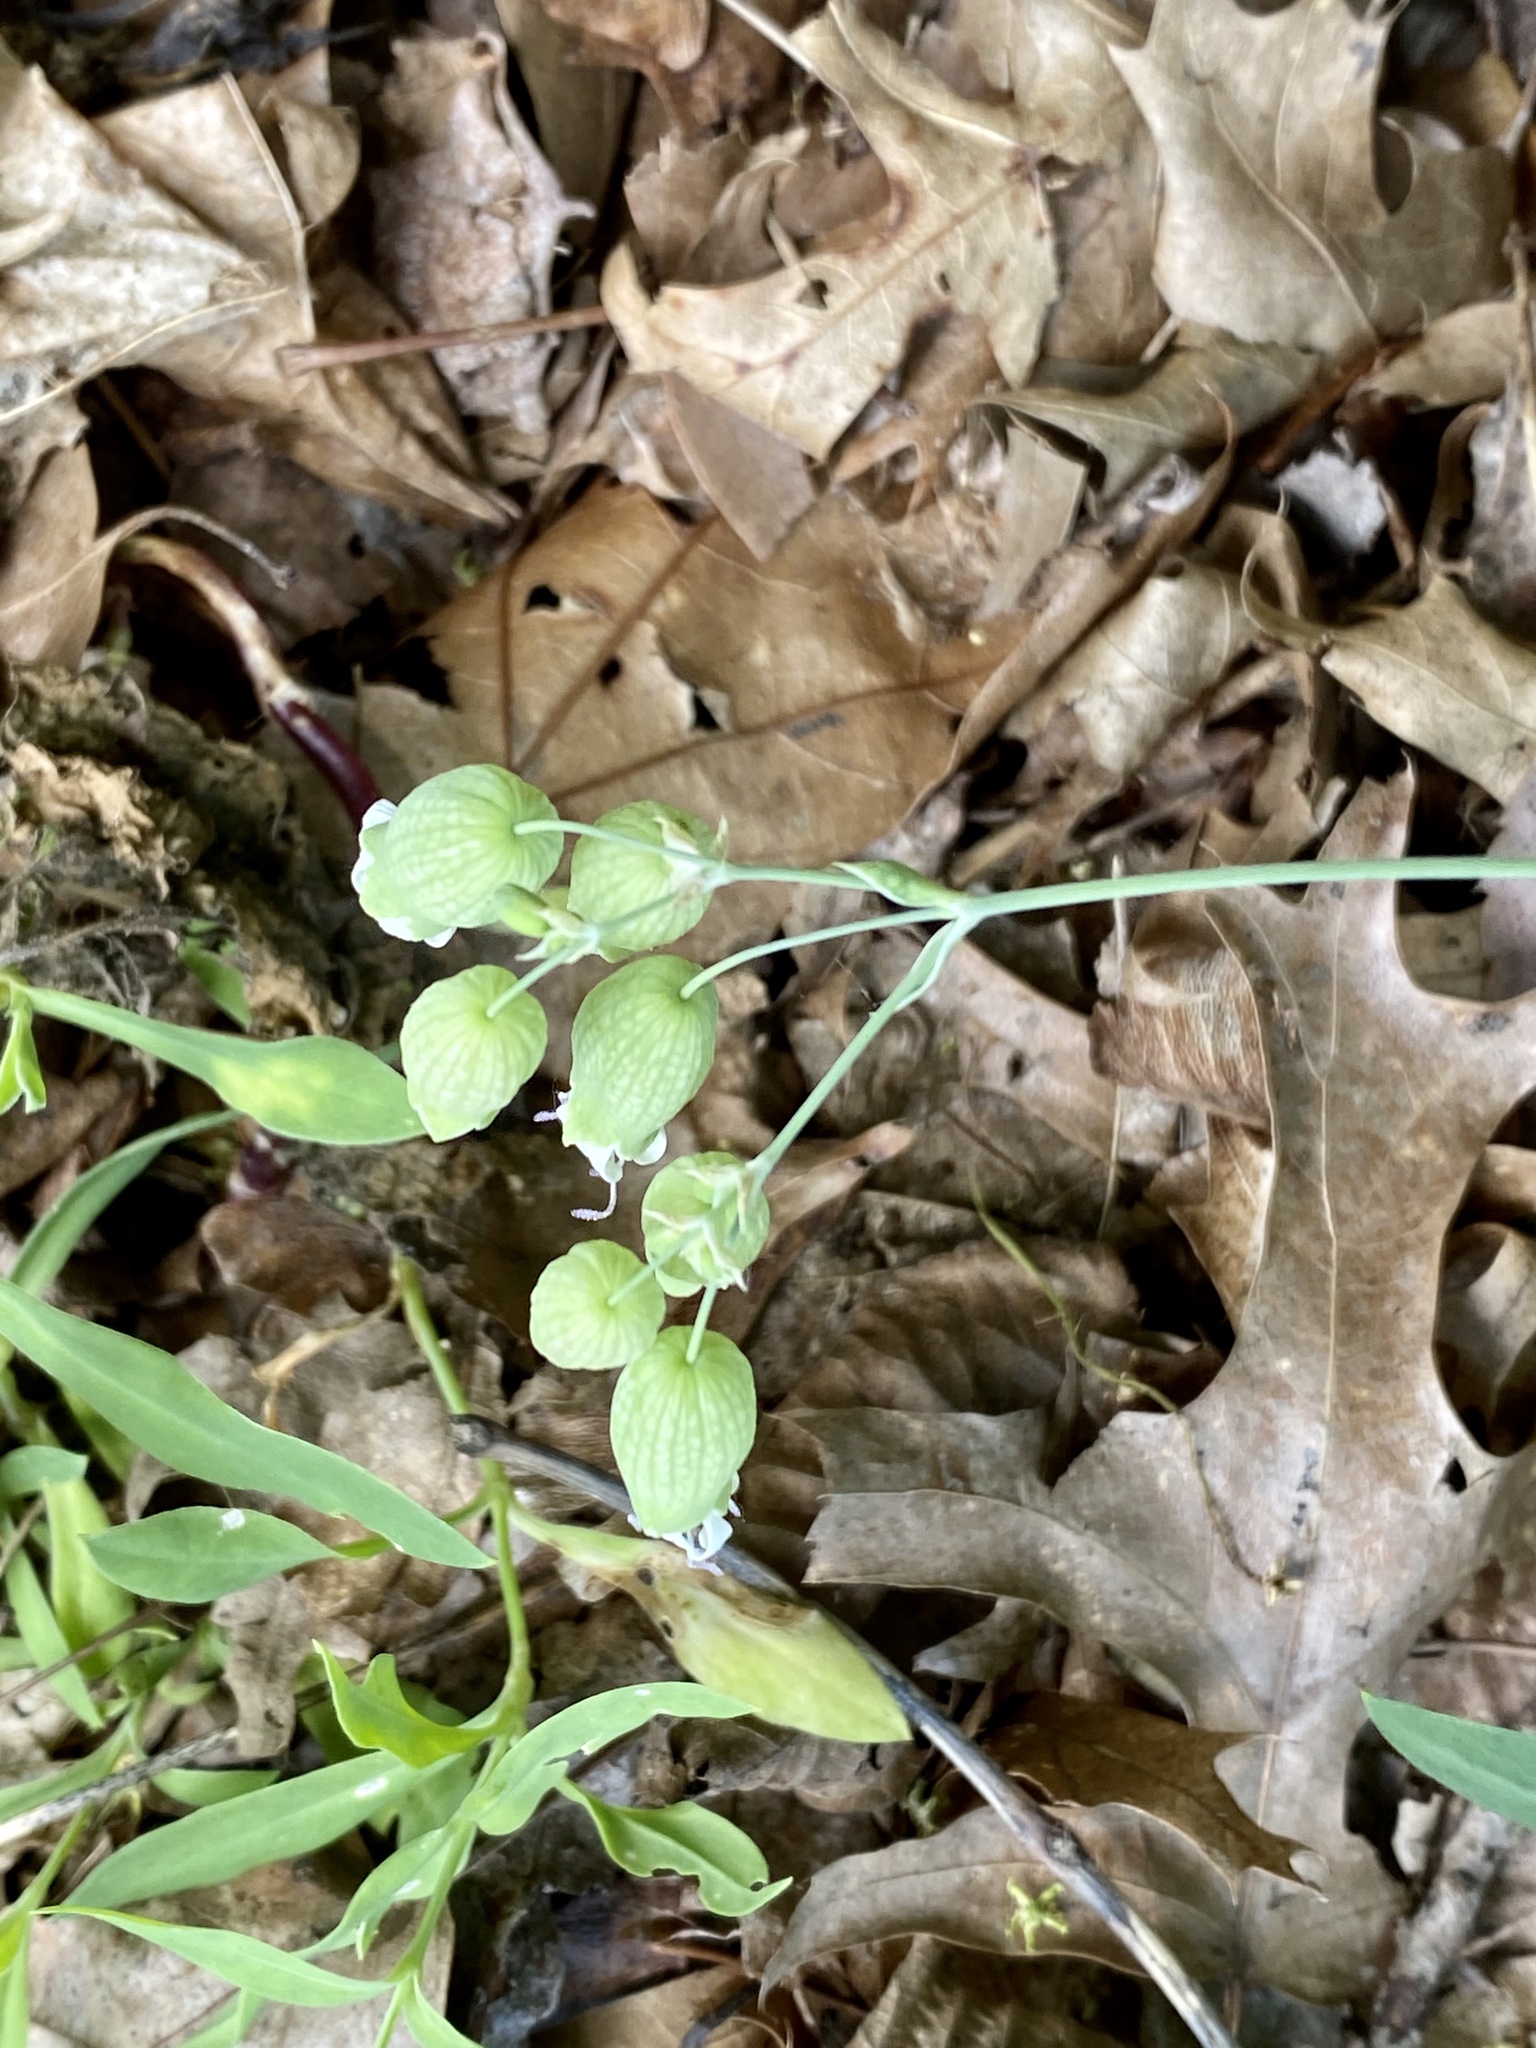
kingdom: Plantae
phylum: Tracheophyta
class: Magnoliopsida
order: Caryophyllales
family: Caryophyllaceae
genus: Silene
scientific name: Silene vulgaris
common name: Bladder campion
